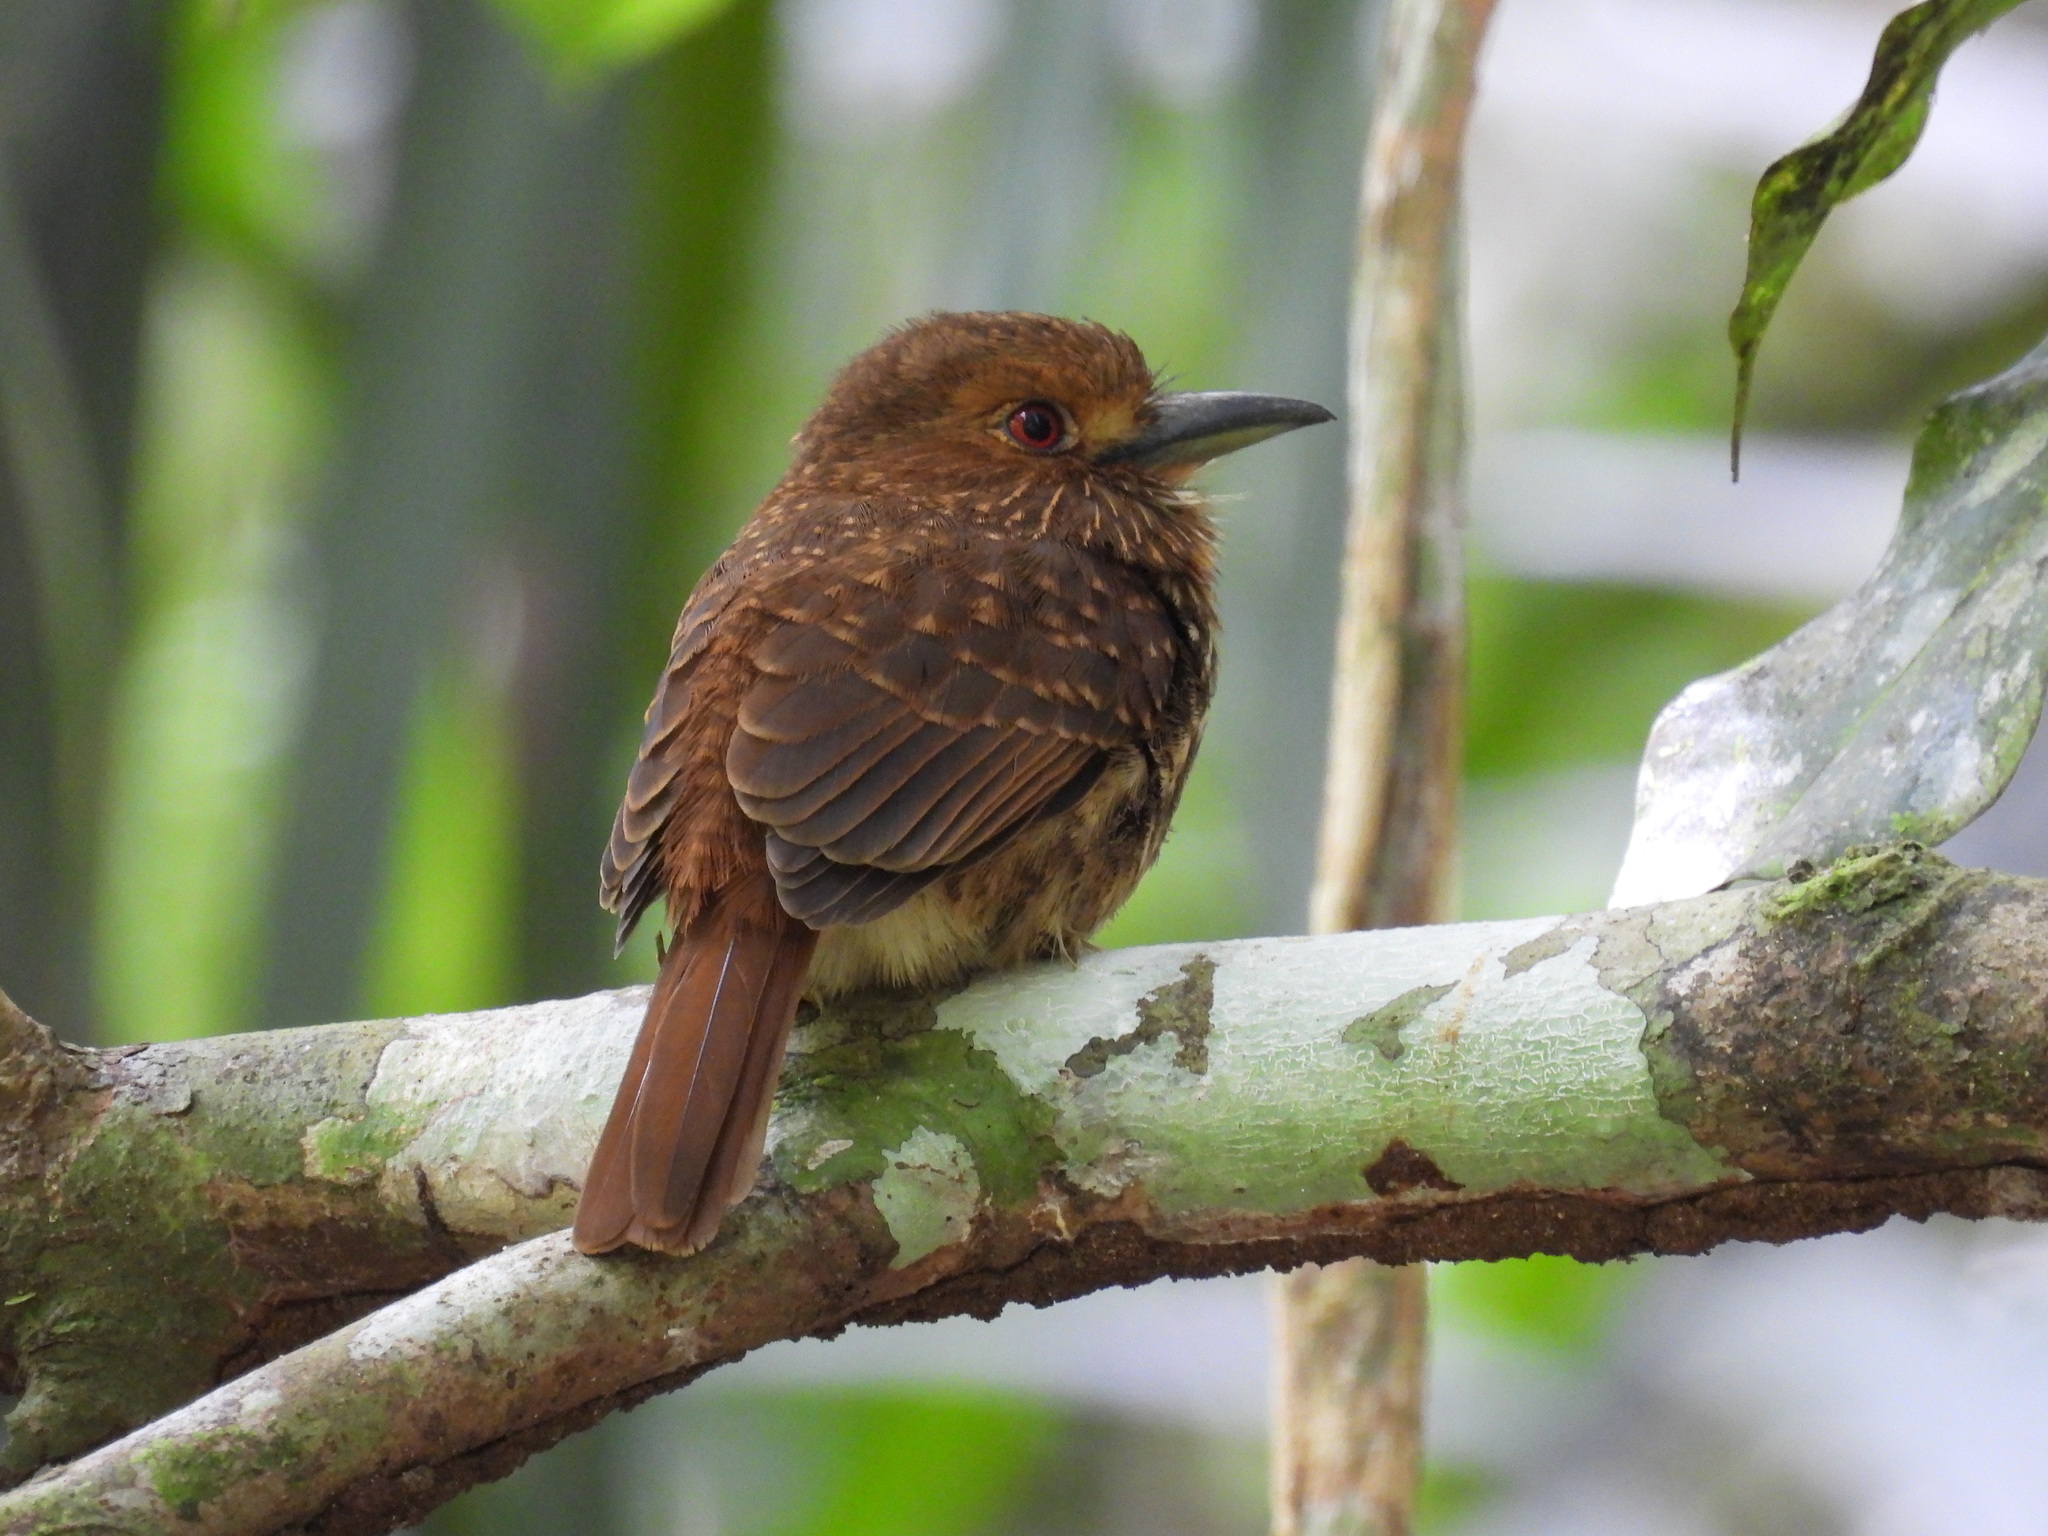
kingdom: Animalia
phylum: Chordata
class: Aves
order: Piciformes
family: Bucconidae
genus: Malacoptila
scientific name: Malacoptila panamensis
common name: White-whiskered puffbird
